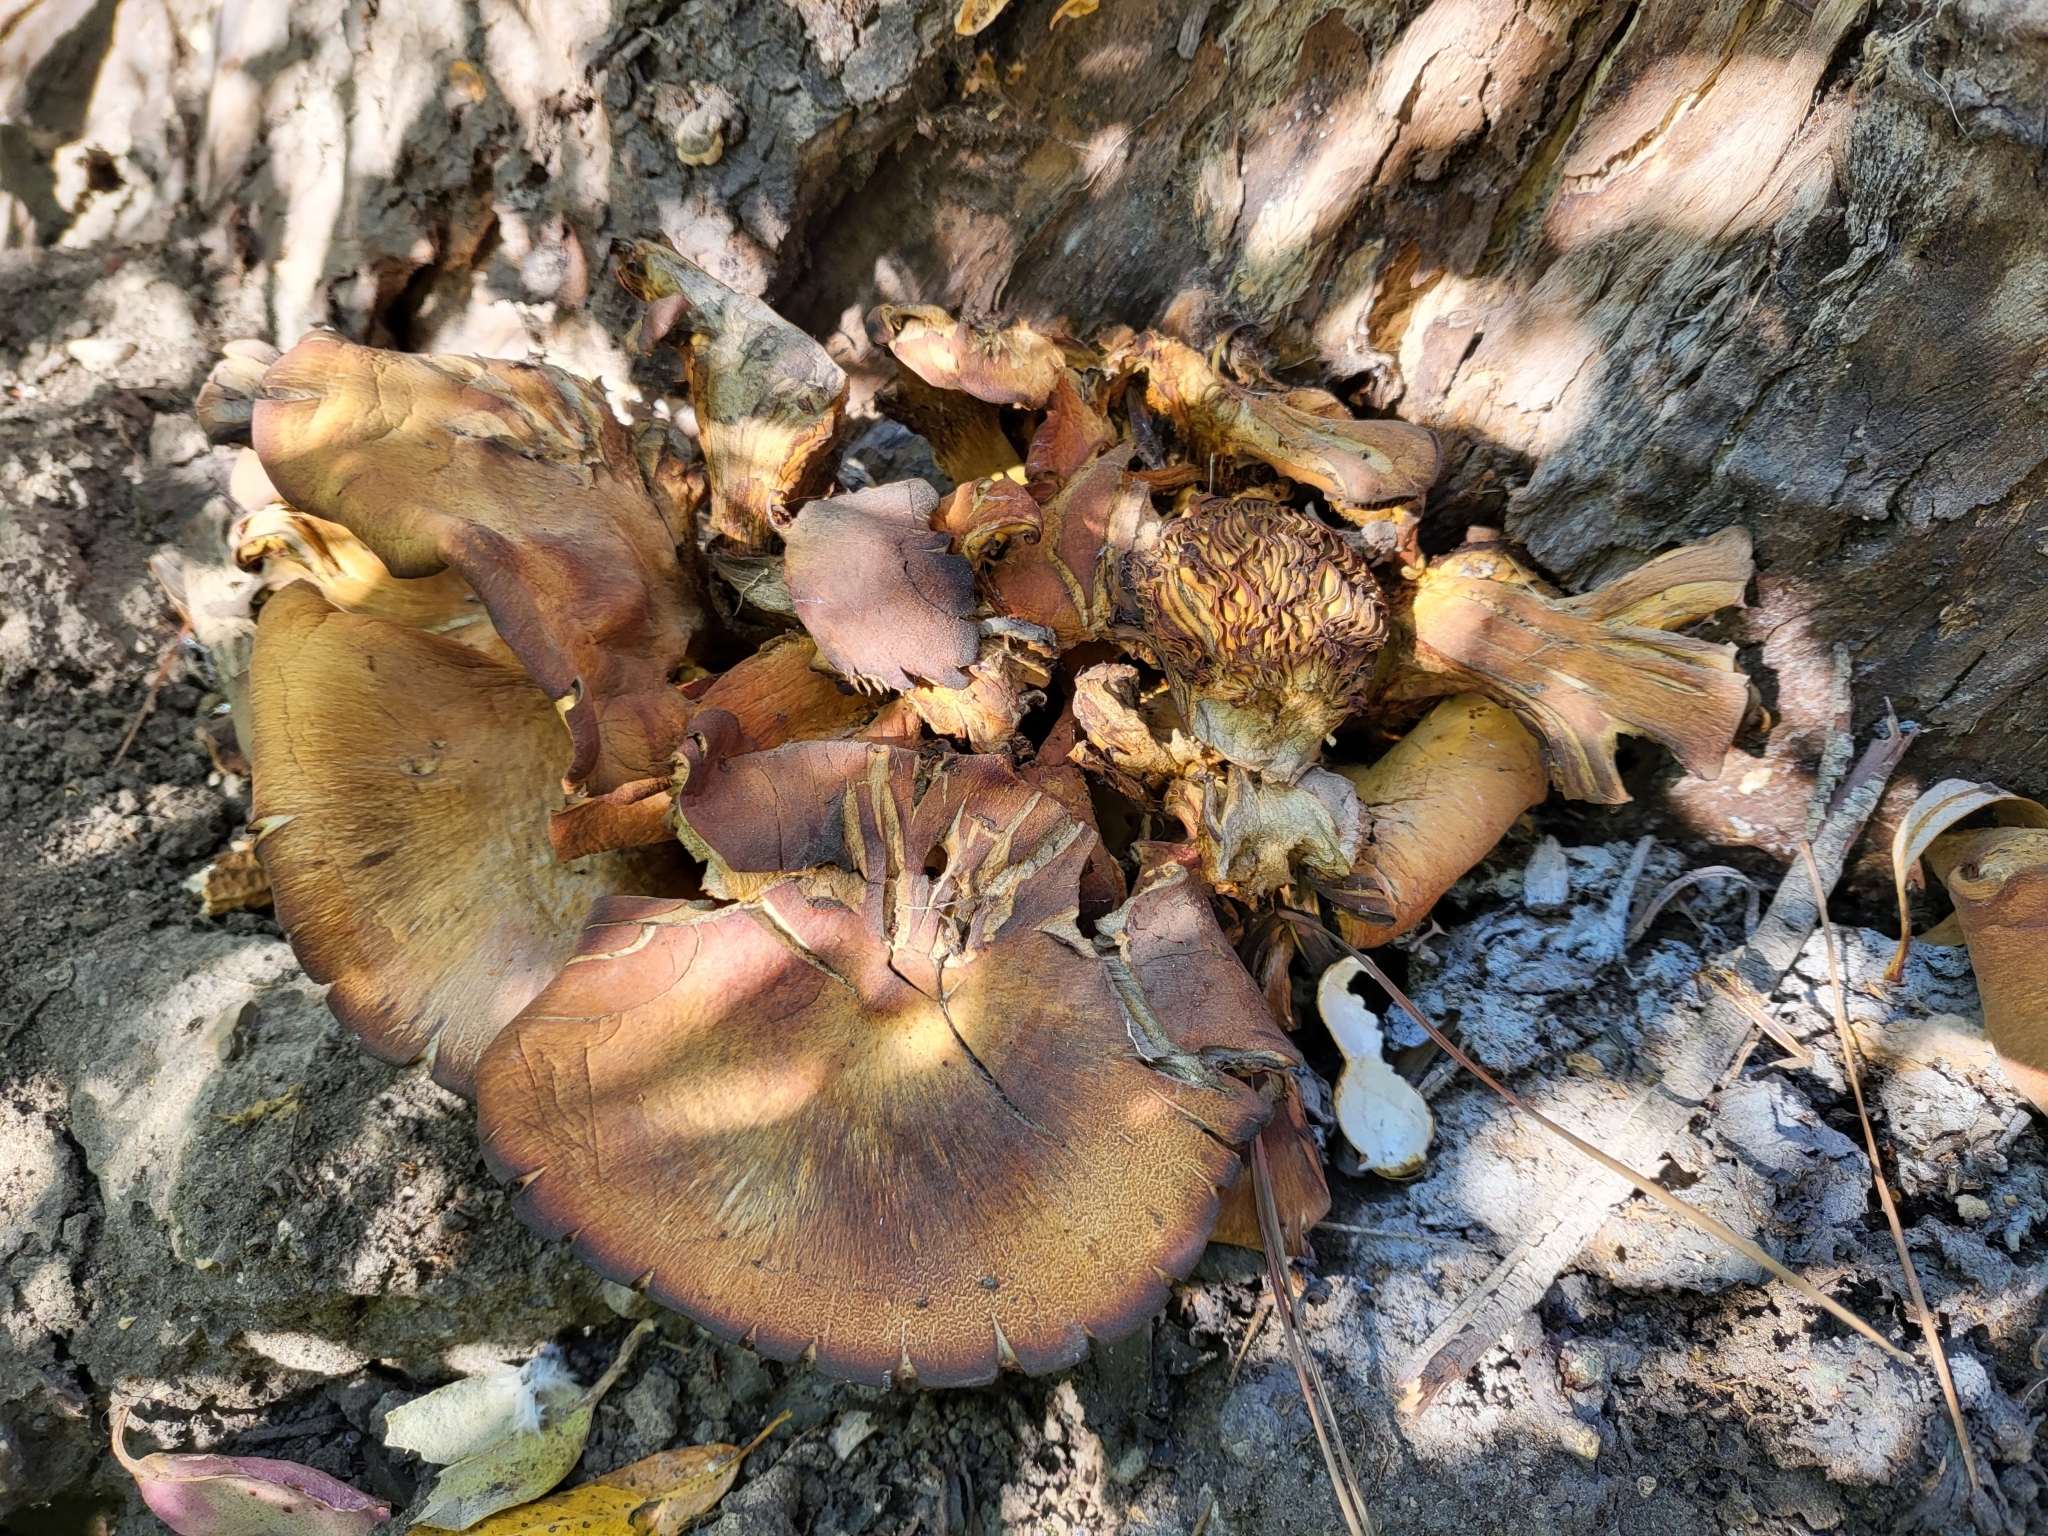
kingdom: Fungi
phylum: Basidiomycota
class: Agaricomycetes
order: Agaricales
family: Omphalotaceae
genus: Omphalotus
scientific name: Omphalotus olivascens
